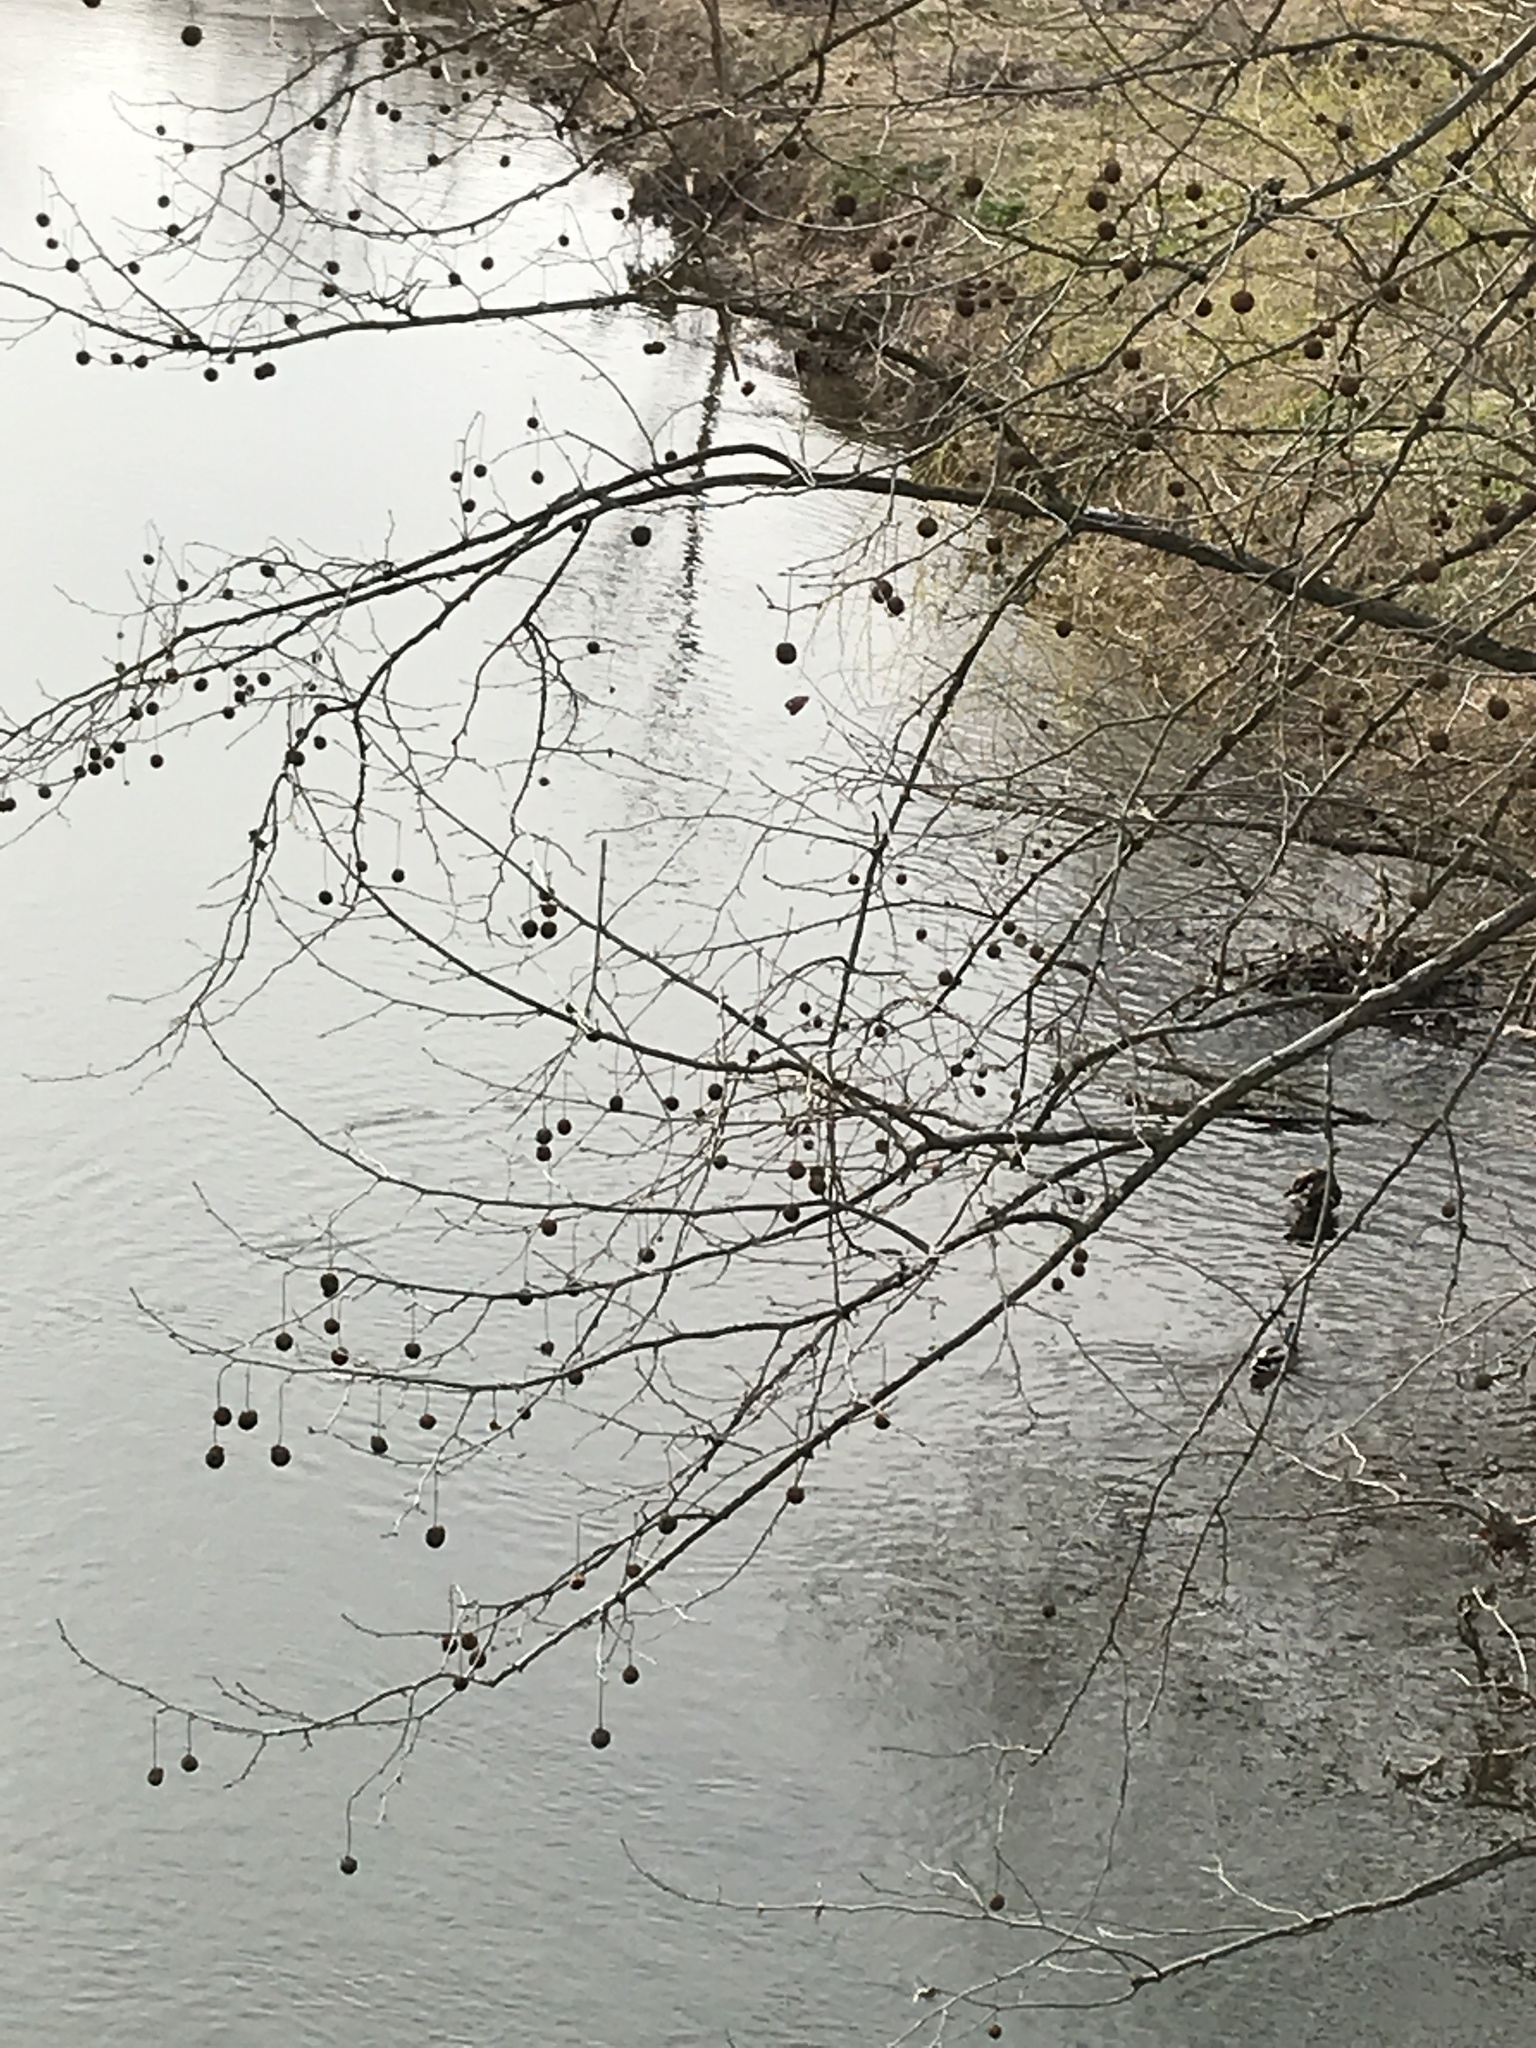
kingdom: Plantae
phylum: Tracheophyta
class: Magnoliopsida
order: Proteales
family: Platanaceae
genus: Platanus
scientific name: Platanus occidentalis
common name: American sycamore
